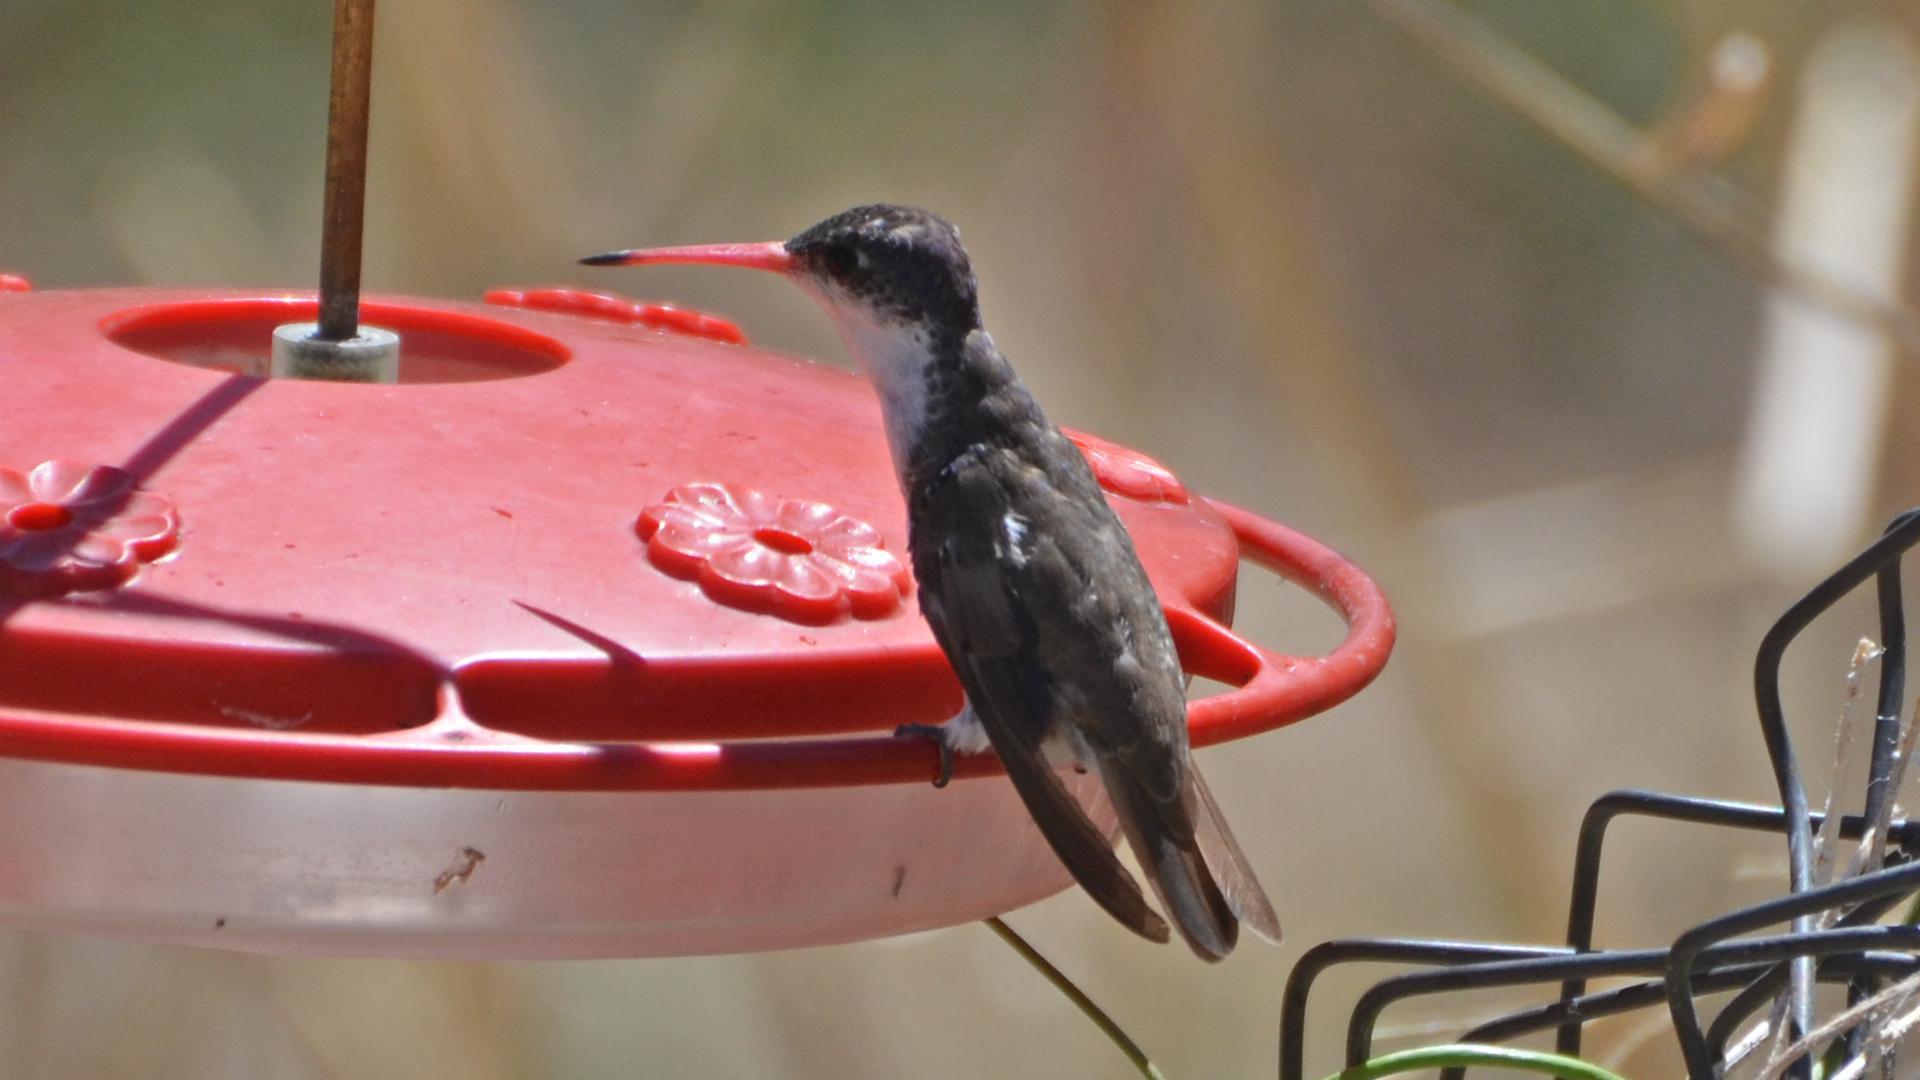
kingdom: Animalia
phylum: Chordata
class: Aves
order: Apodiformes
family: Trochilidae
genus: Leucolia
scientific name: Leucolia violiceps
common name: Violet-crowned hummingbird
